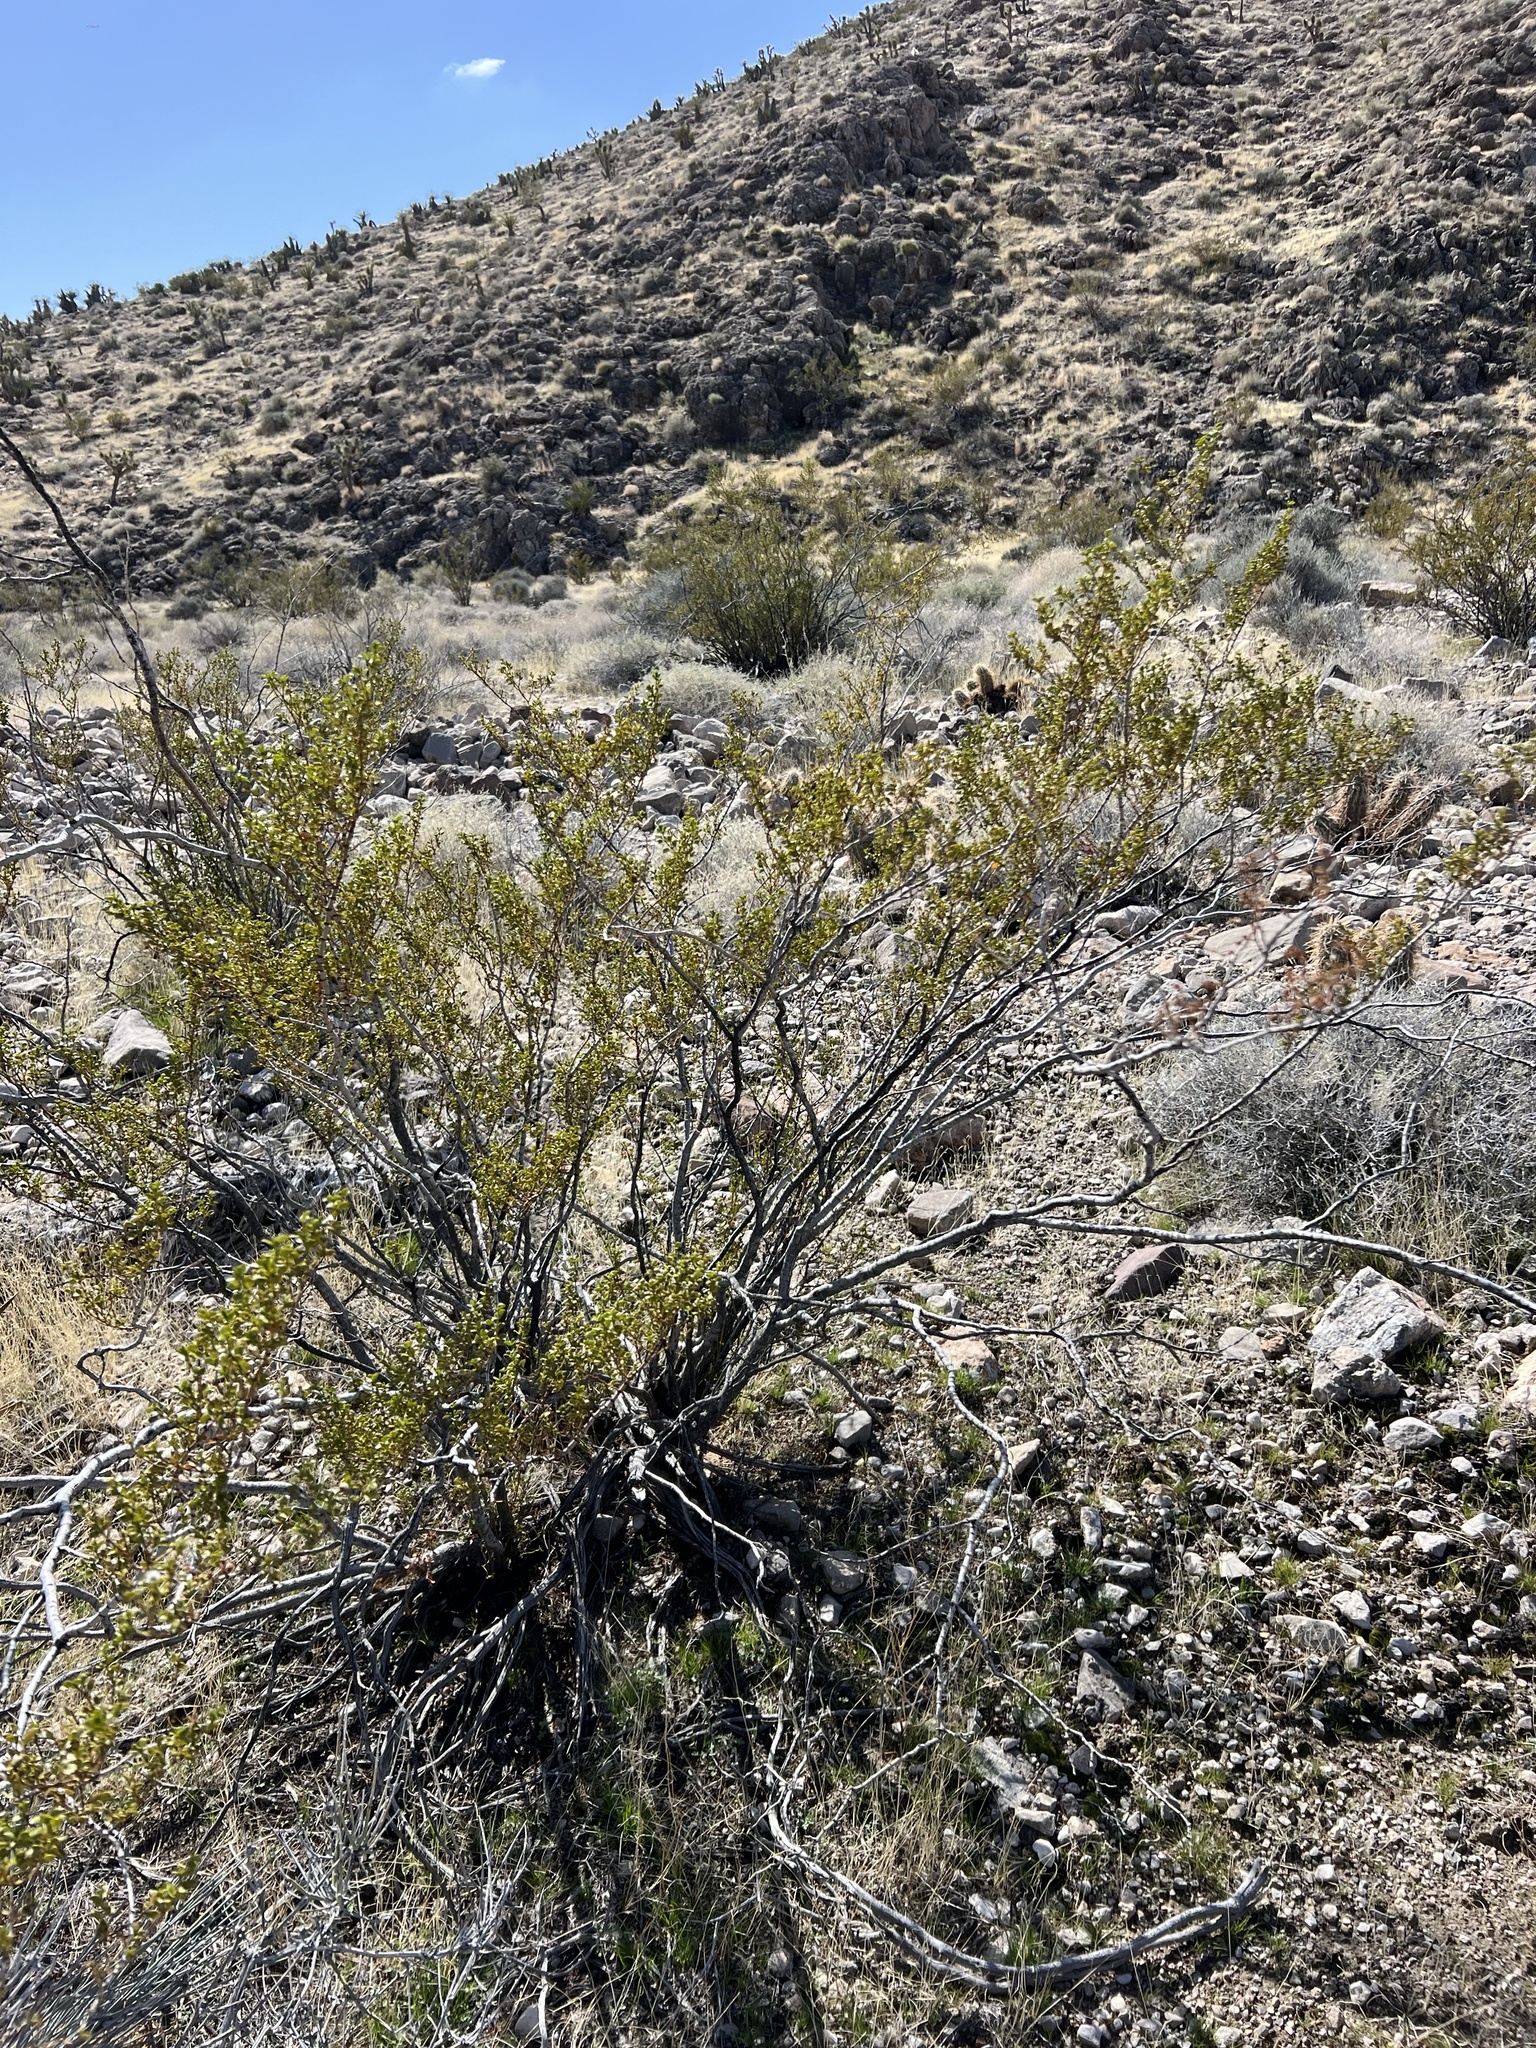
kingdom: Plantae
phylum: Tracheophyta
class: Magnoliopsida
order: Zygophyllales
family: Zygophyllaceae
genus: Larrea
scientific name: Larrea tridentata
